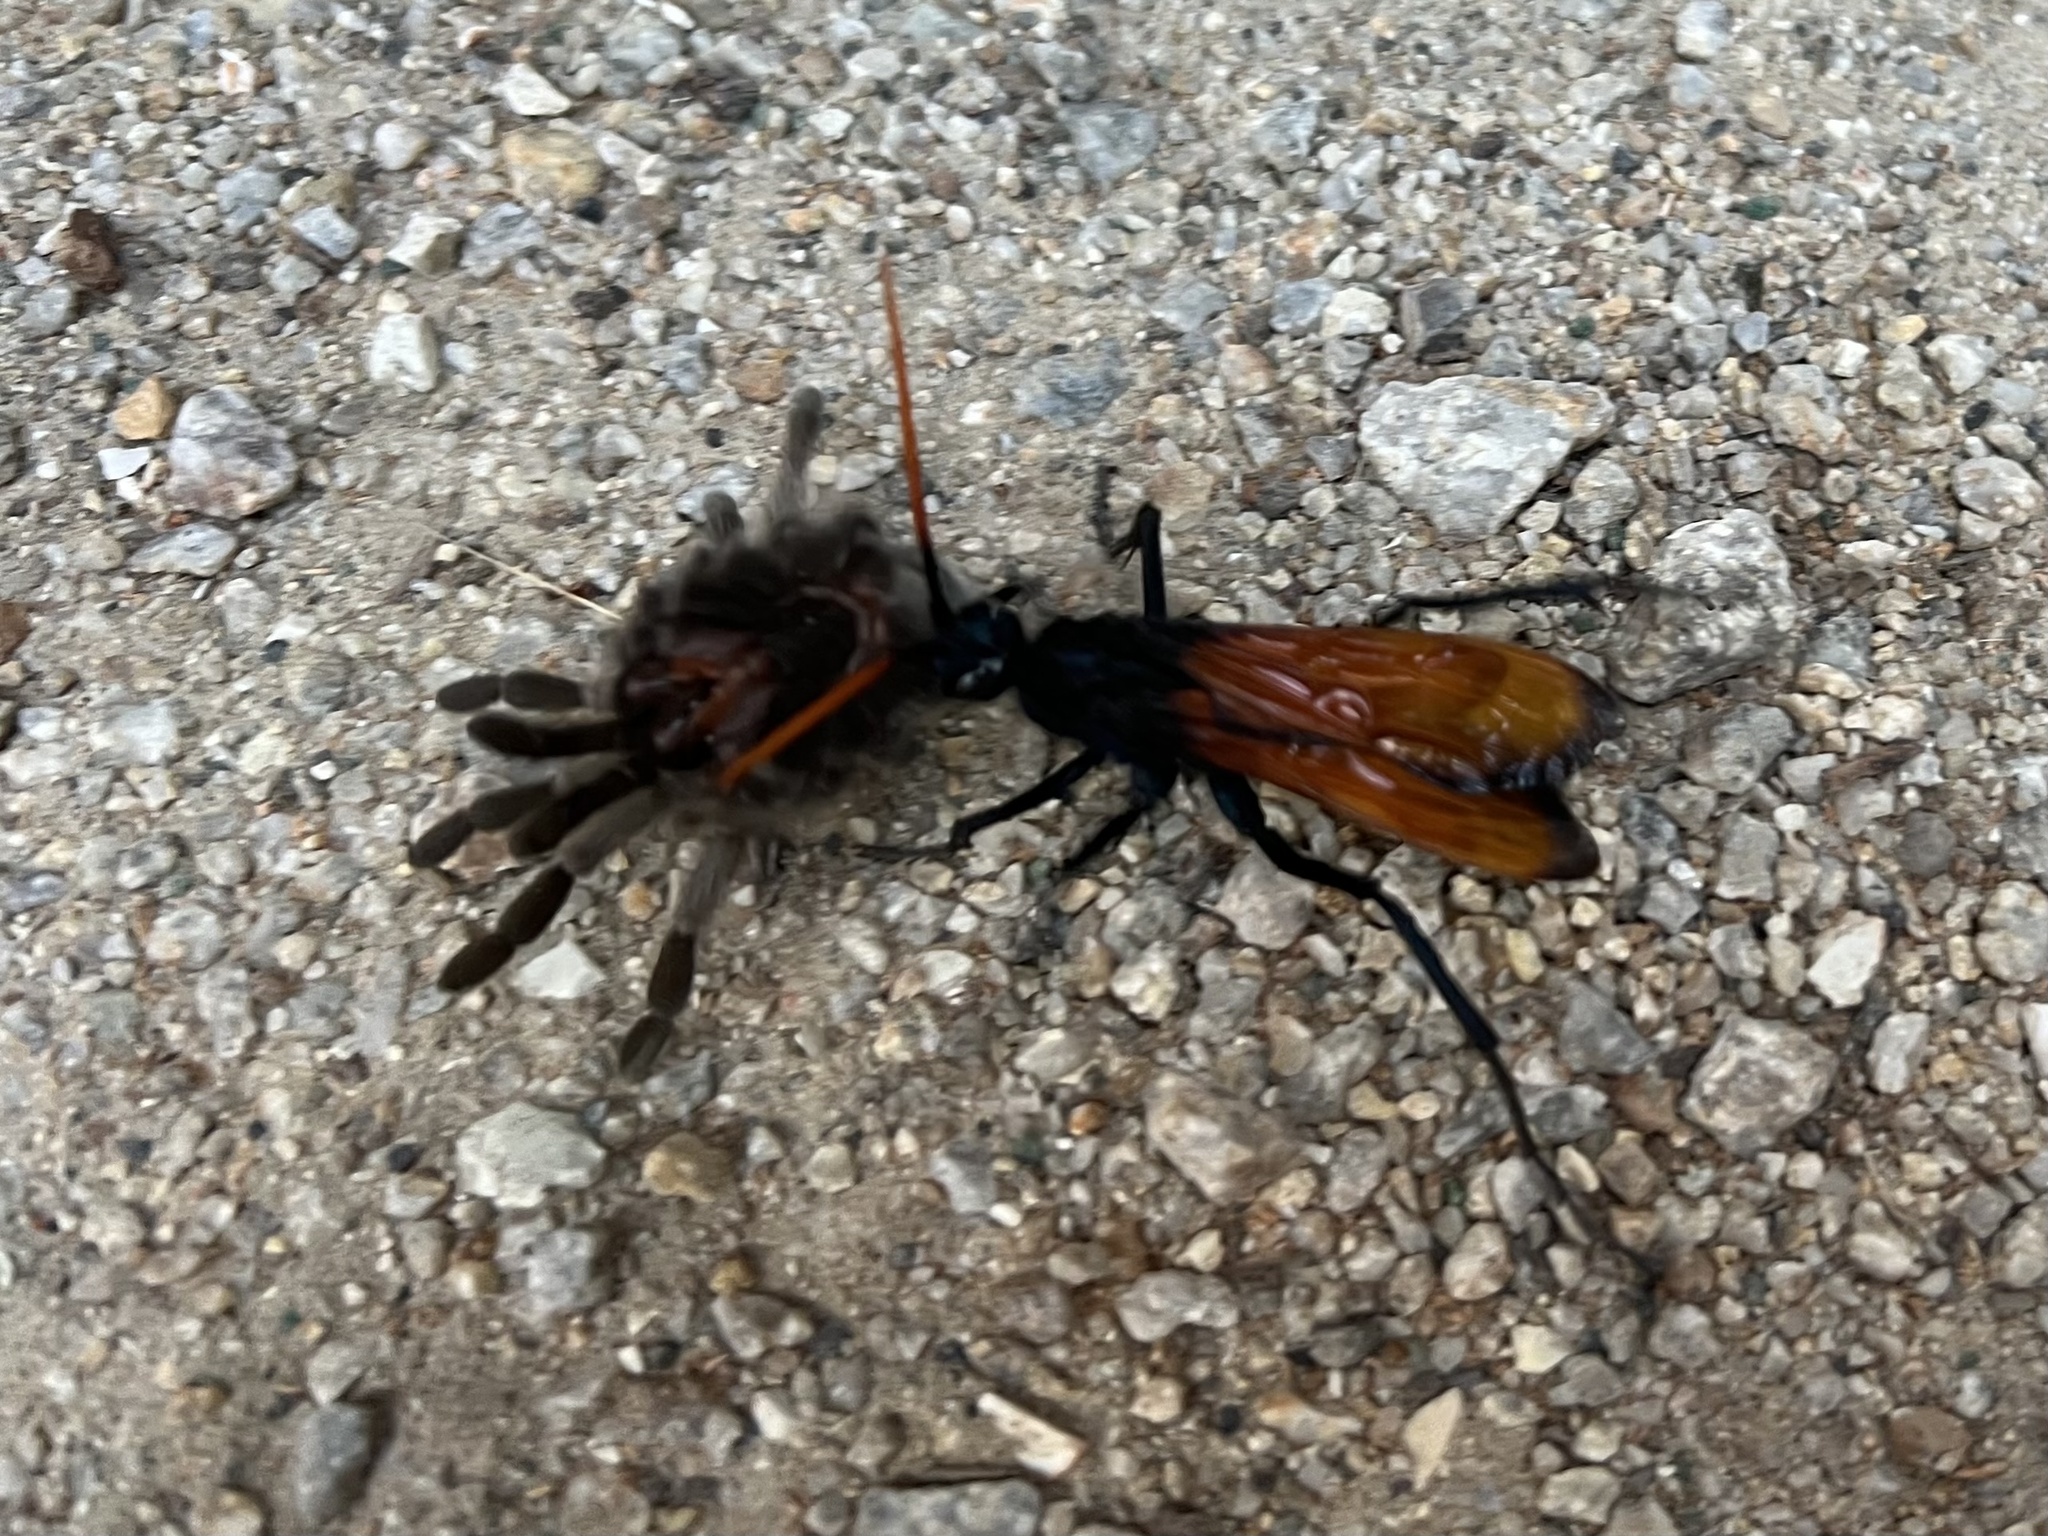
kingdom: Animalia
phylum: Arthropoda
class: Insecta
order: Hymenoptera
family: Pompilidae
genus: Pepsis
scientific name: Pepsis mildei
